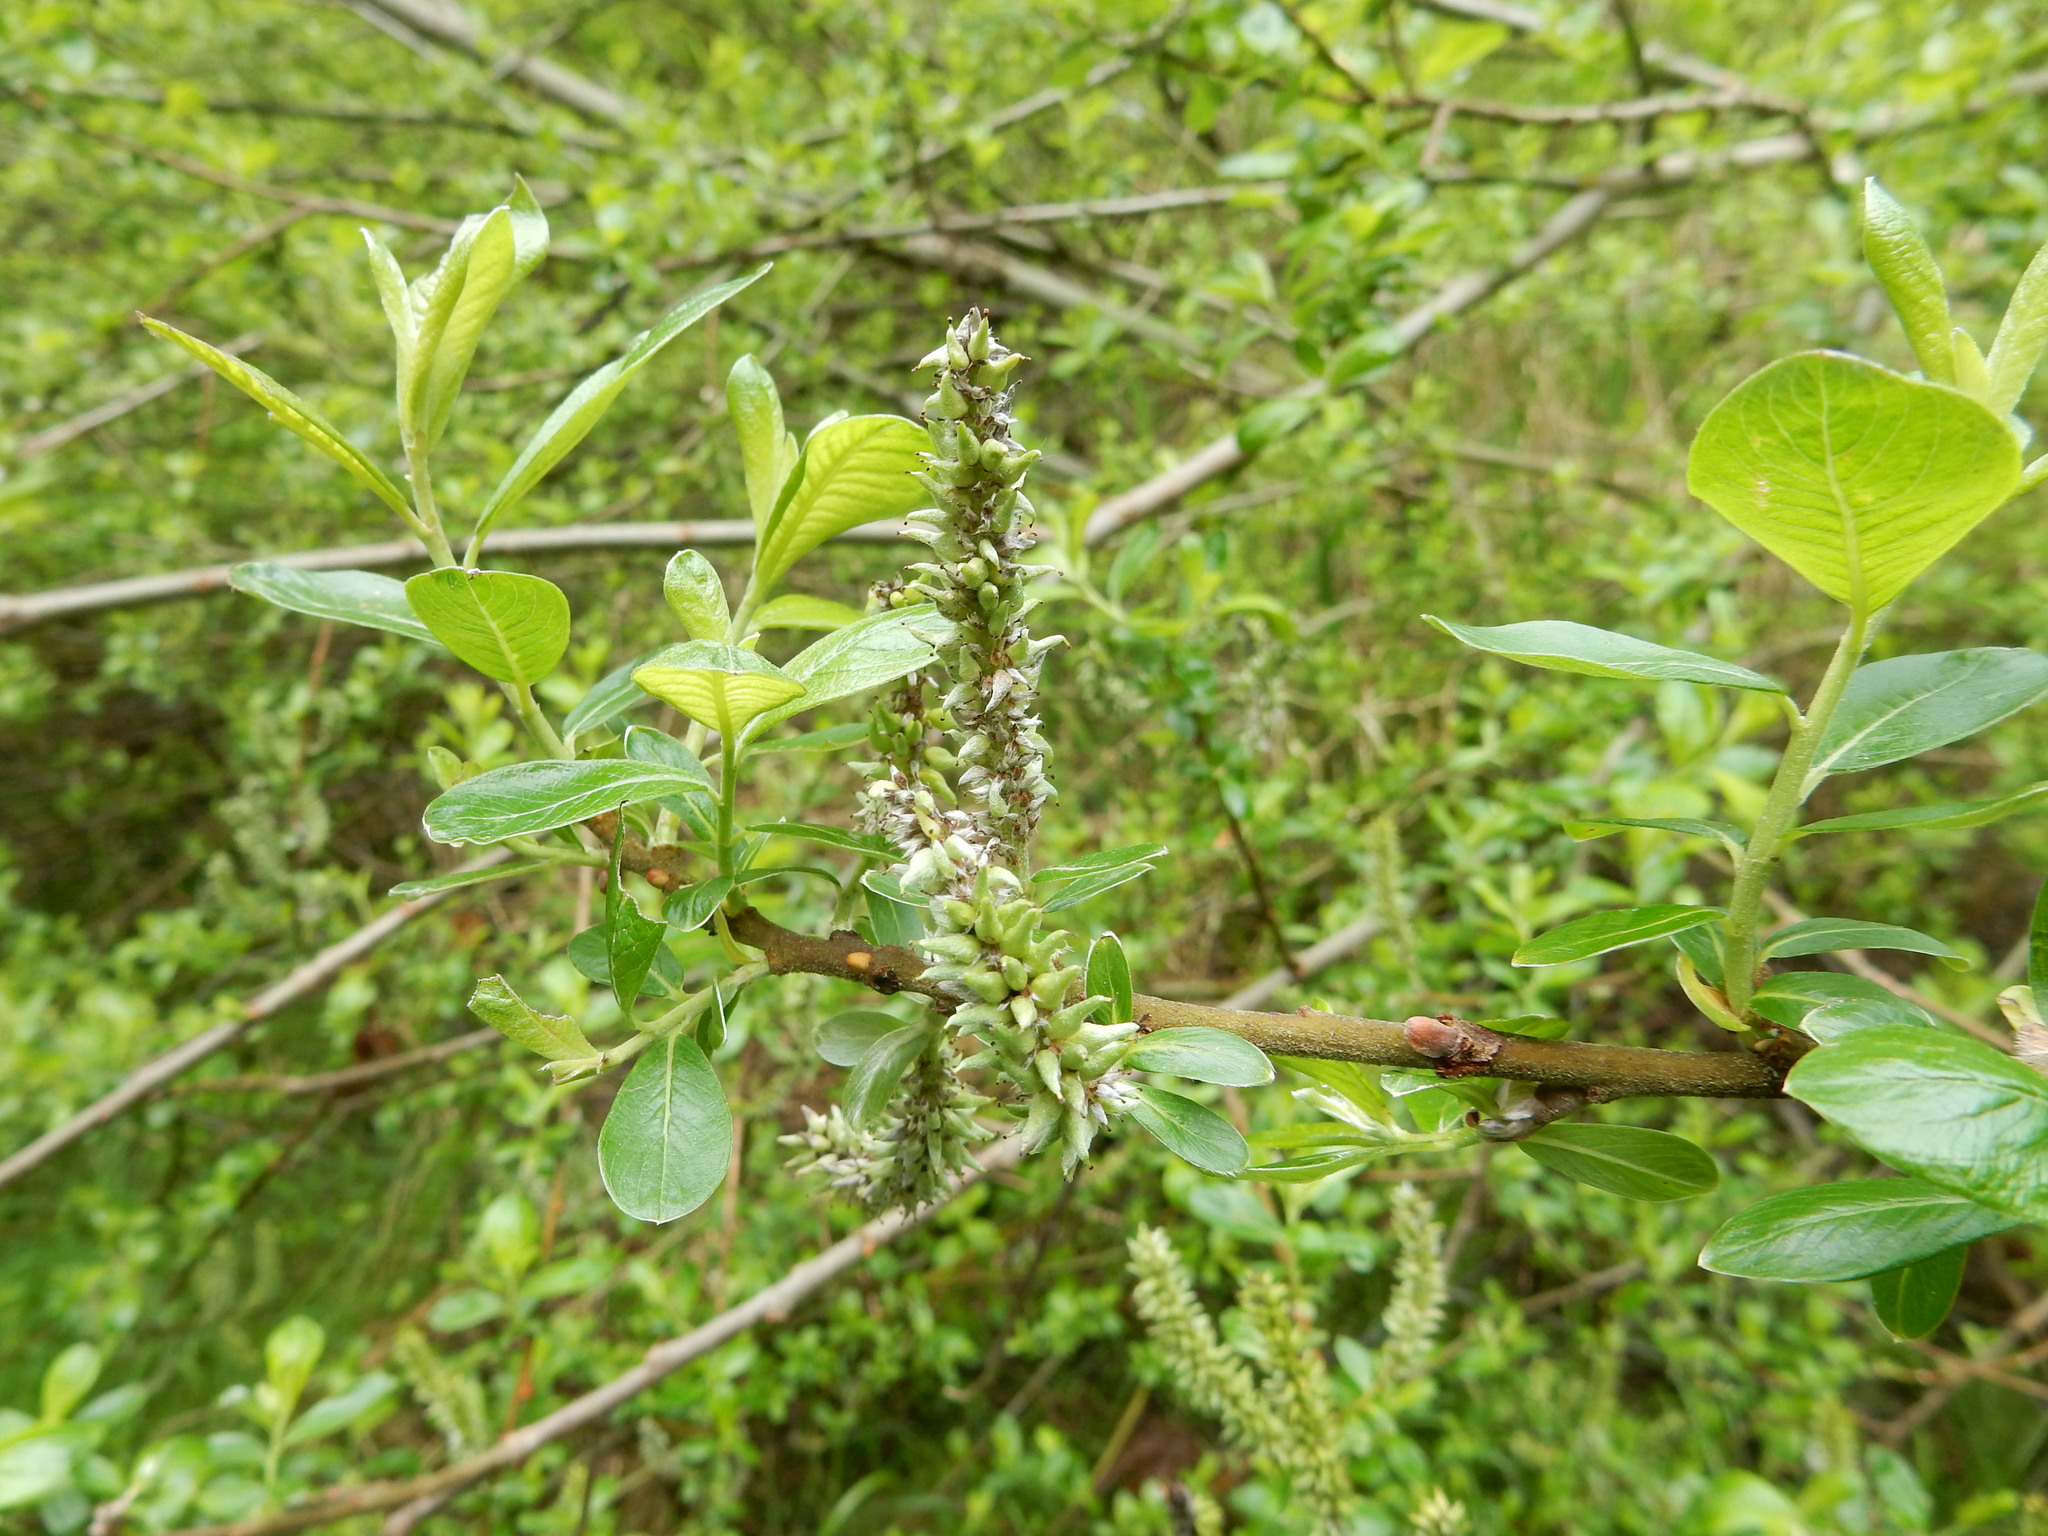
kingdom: Plantae
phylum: Tracheophyta
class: Magnoliopsida
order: Malpighiales
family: Salicaceae
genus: Salix
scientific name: Salix sitchensis
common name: Sitka willow
